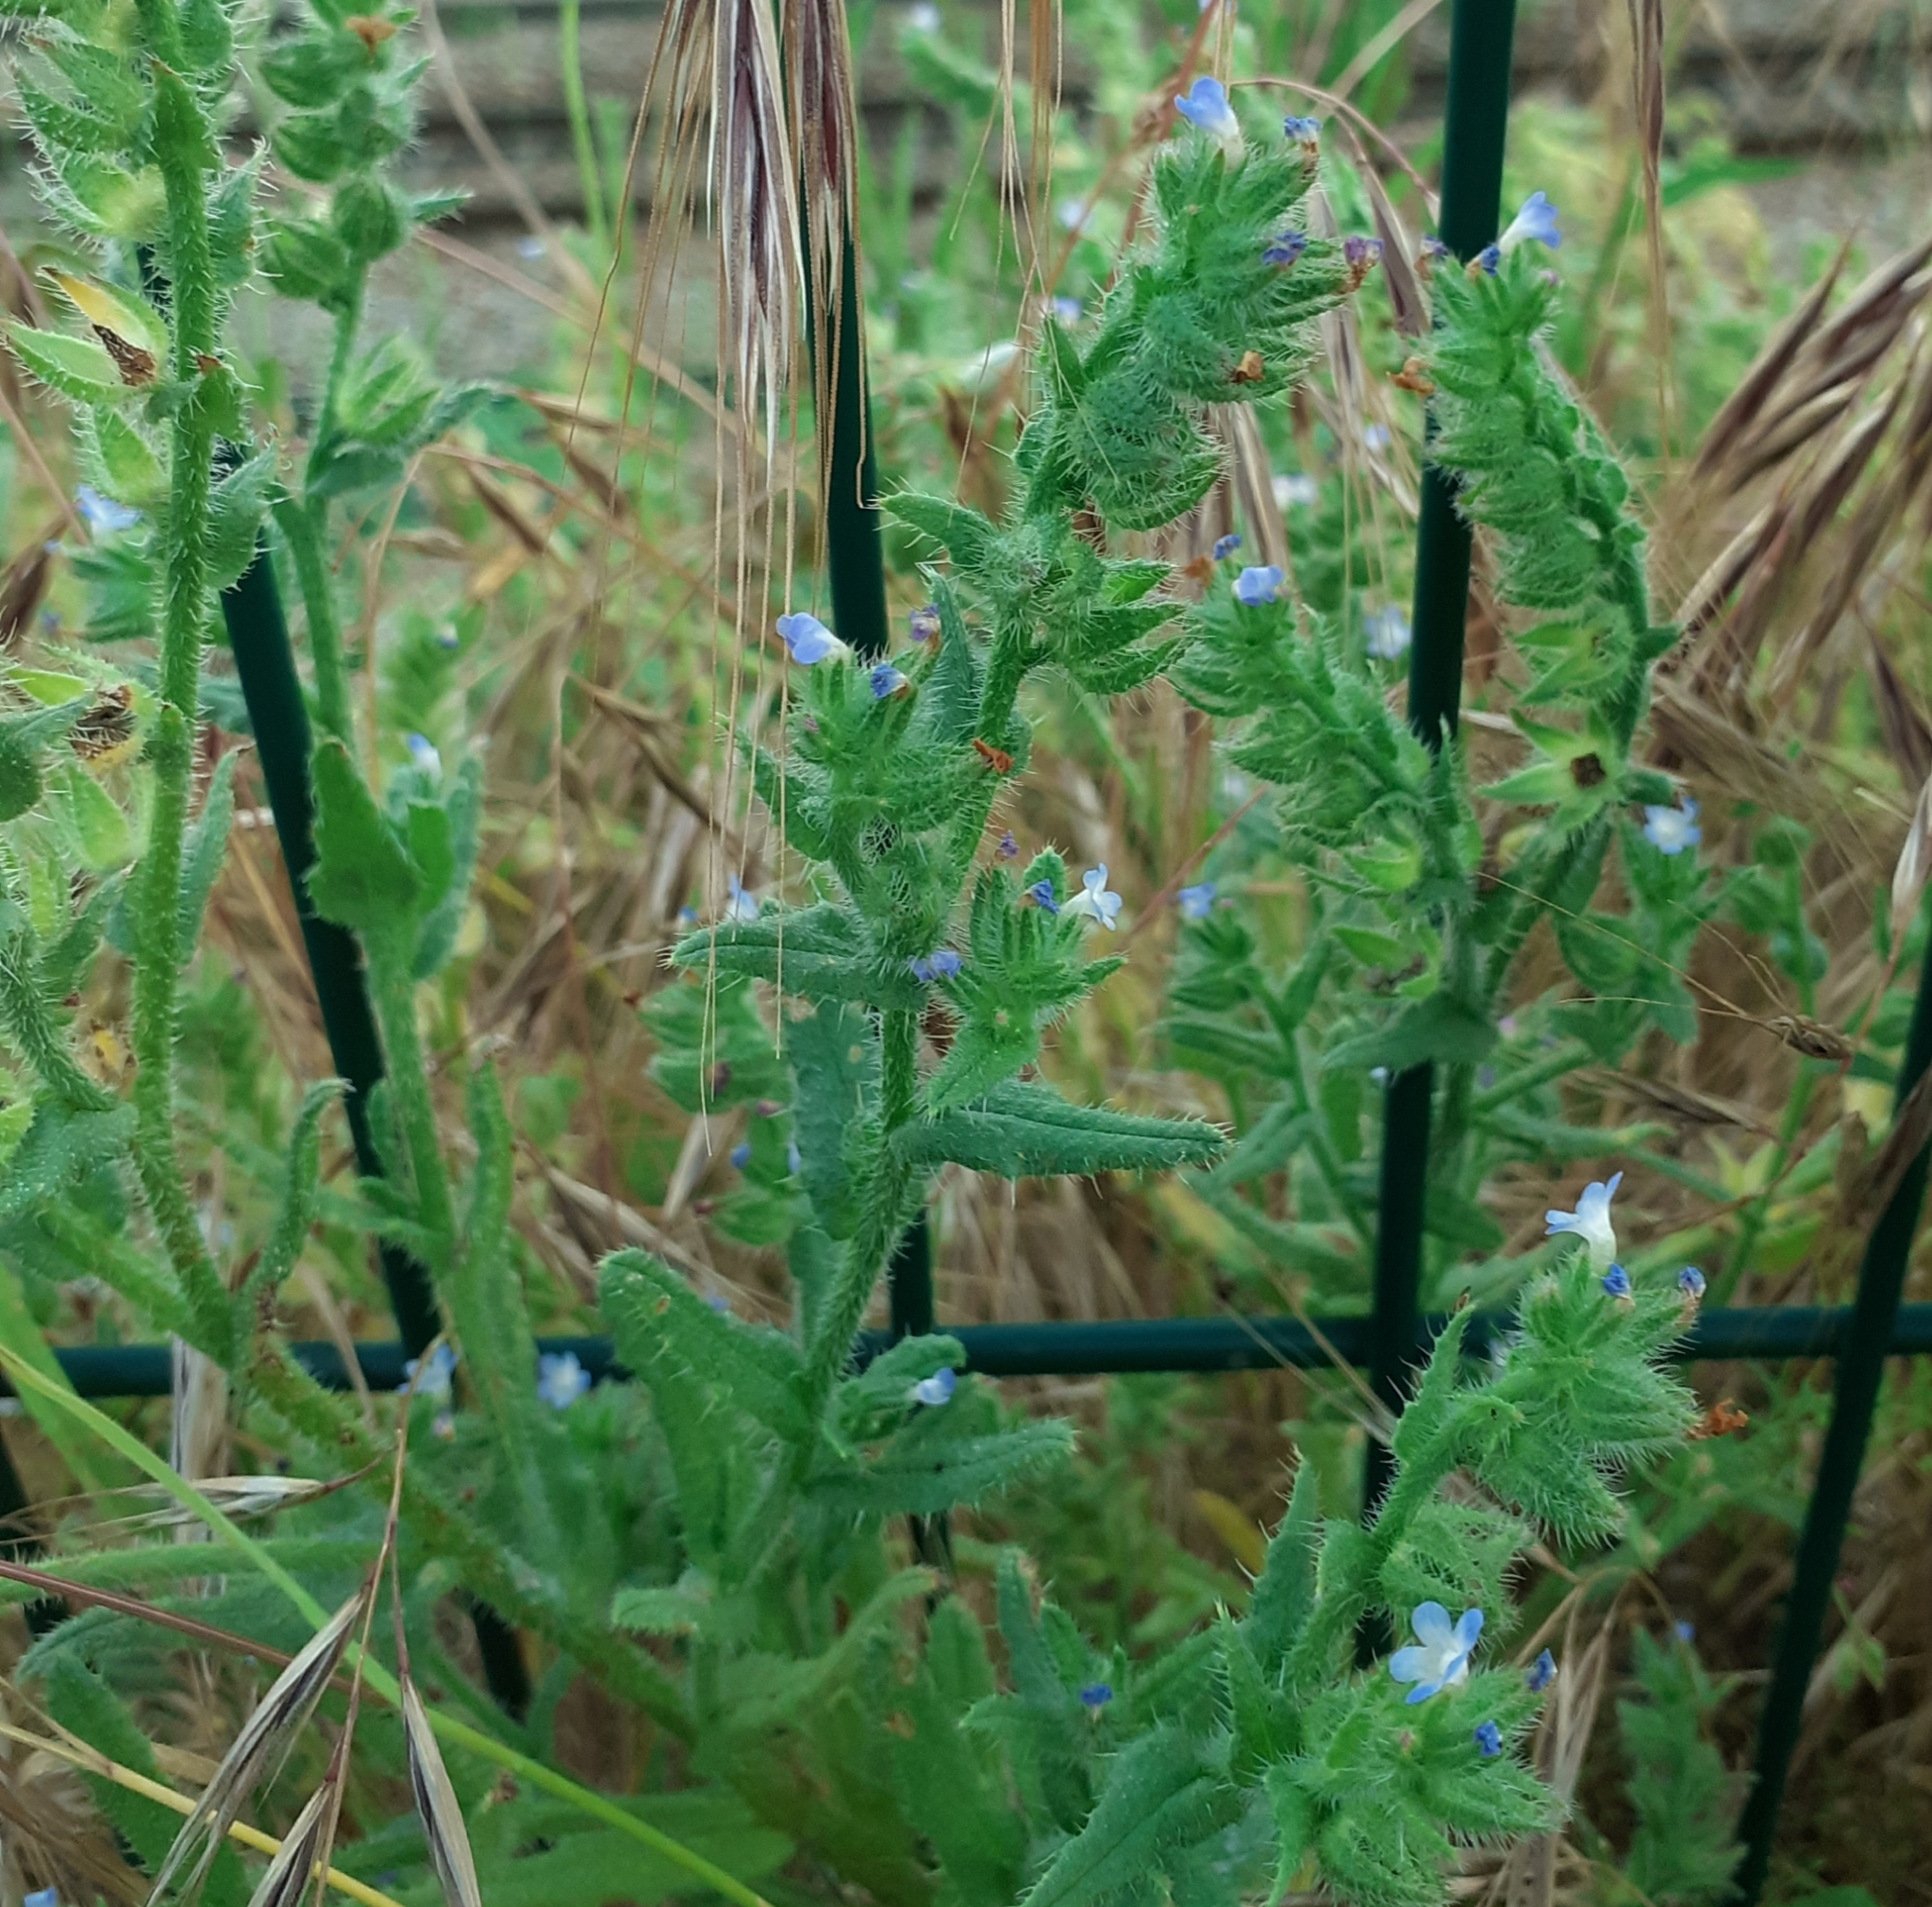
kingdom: Plantae
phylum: Tracheophyta
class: Magnoliopsida
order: Boraginales
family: Boraginaceae
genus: Lycopsis
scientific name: Lycopsis arvensis
